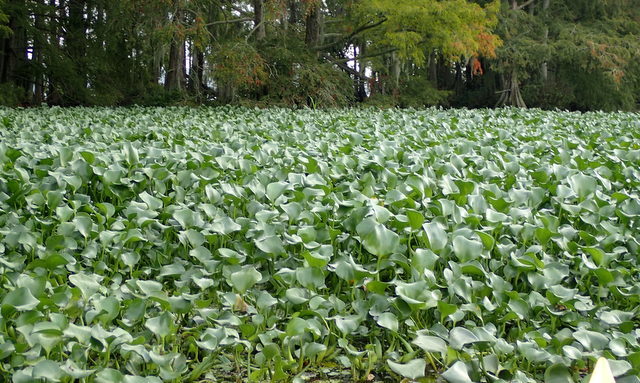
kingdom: Plantae
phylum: Tracheophyta
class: Liliopsida
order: Commelinales
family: Pontederiaceae
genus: Pontederia
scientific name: Pontederia crassipes
